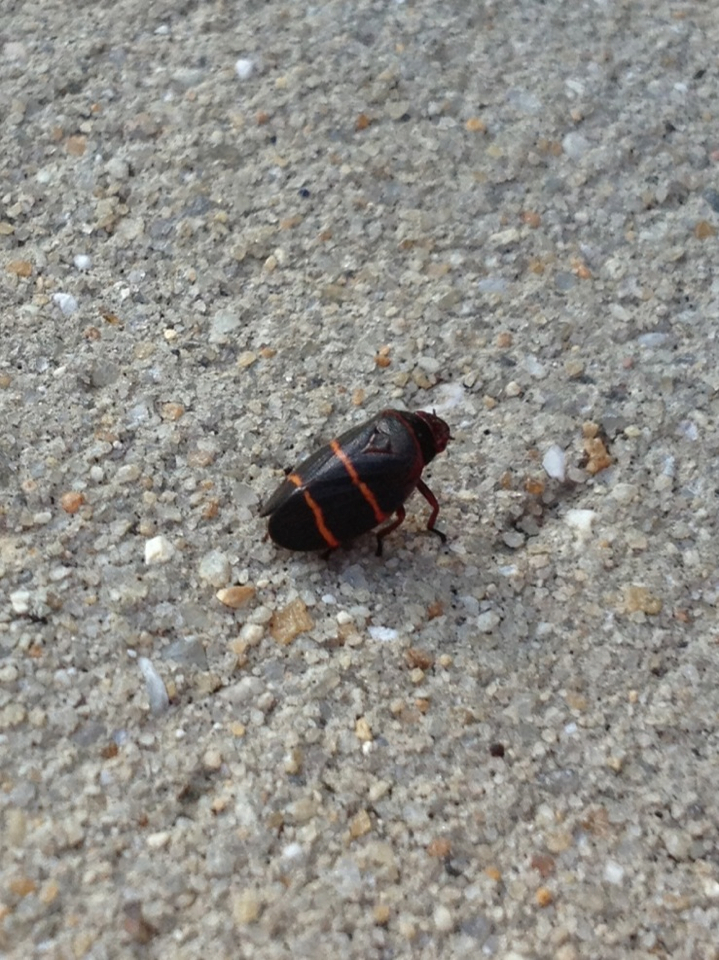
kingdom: Animalia
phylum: Arthropoda
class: Insecta
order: Hemiptera
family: Cercopidae
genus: Prosapia
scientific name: Prosapia bicincta
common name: Twolined spittlebug
